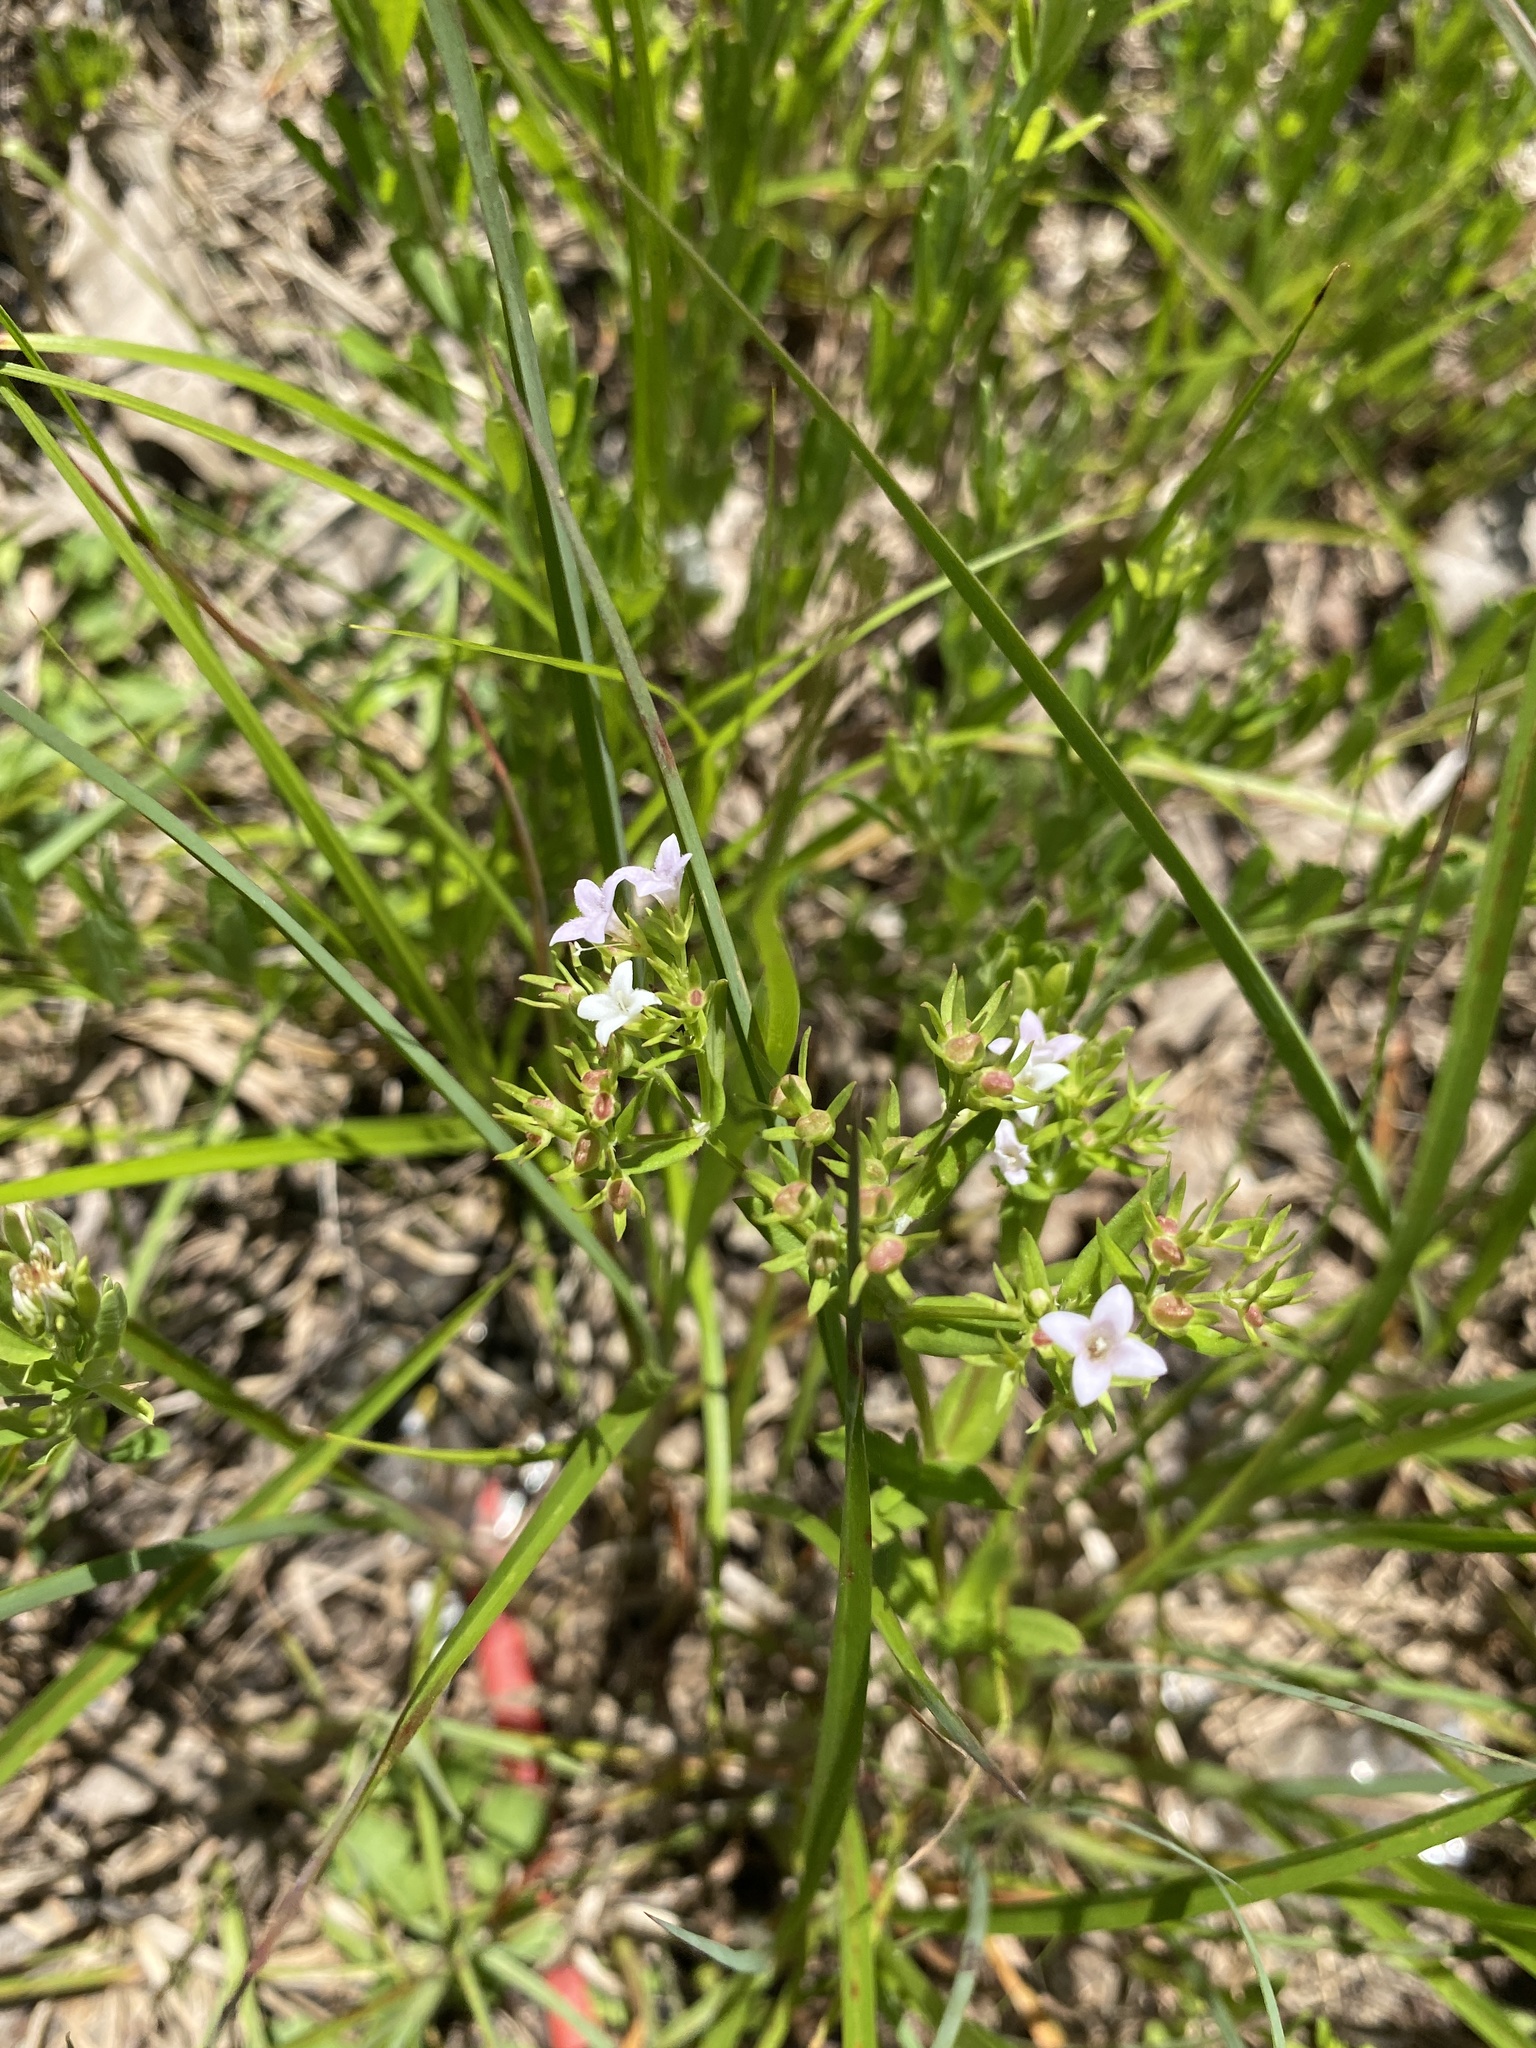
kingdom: Plantae
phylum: Tracheophyta
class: Magnoliopsida
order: Gentianales
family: Rubiaceae
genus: Stenaria
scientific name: Stenaria nigricans
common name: Diamondflowers
